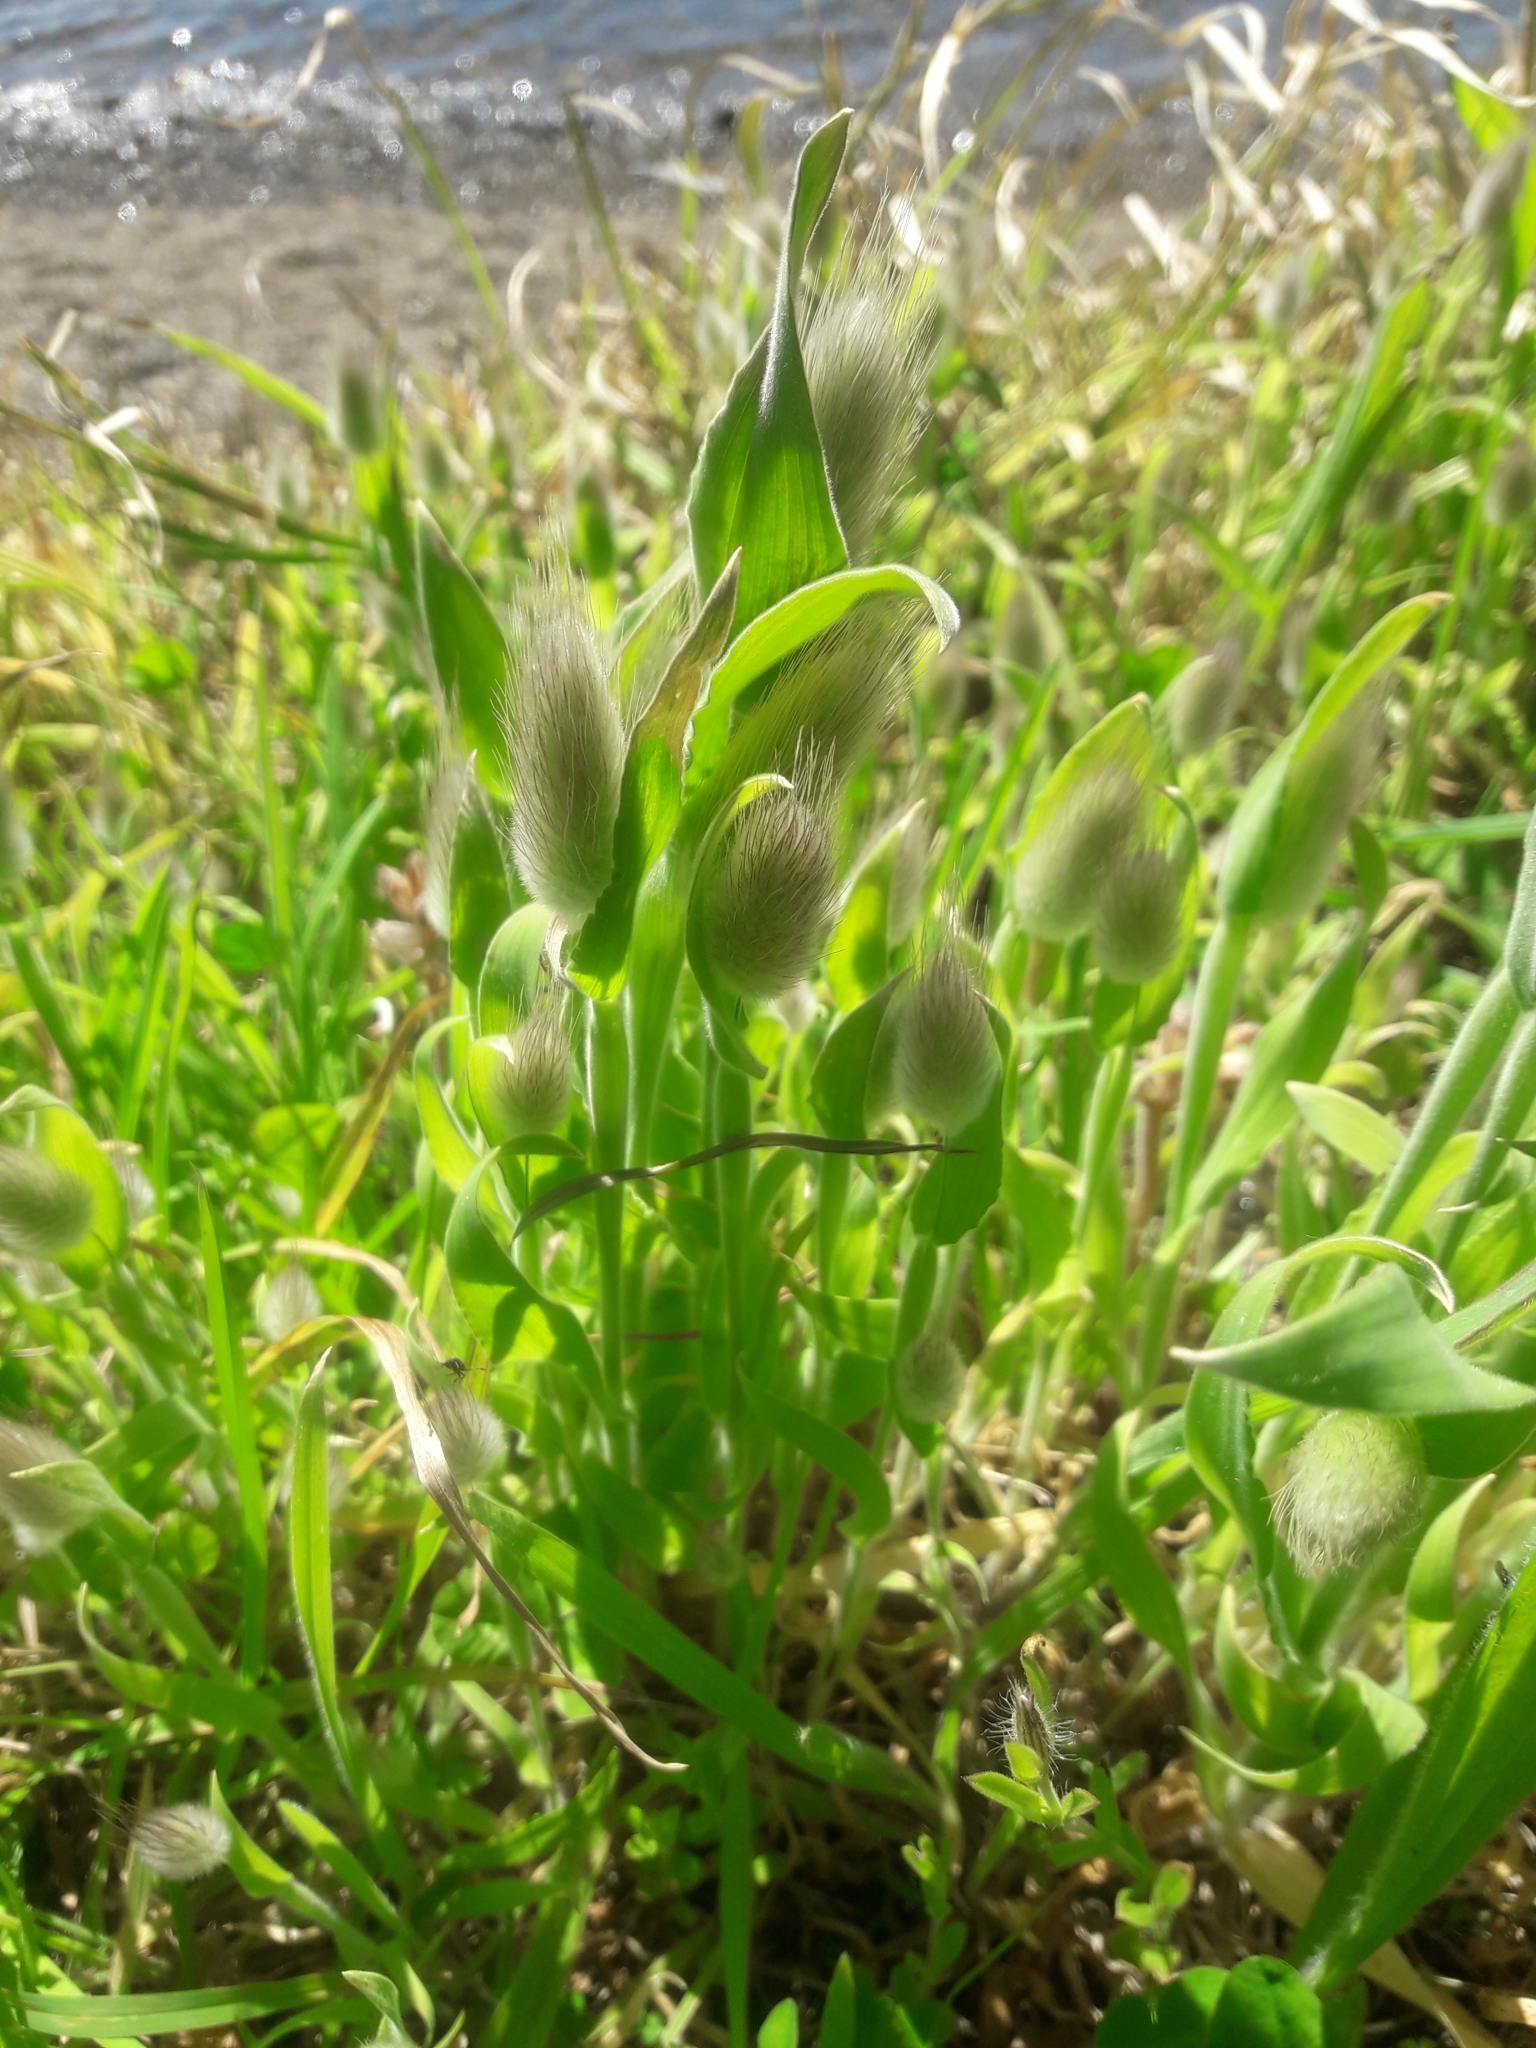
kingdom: Plantae
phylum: Tracheophyta
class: Liliopsida
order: Poales
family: Poaceae
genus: Lagurus
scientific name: Lagurus ovatus
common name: Hare's-tail
